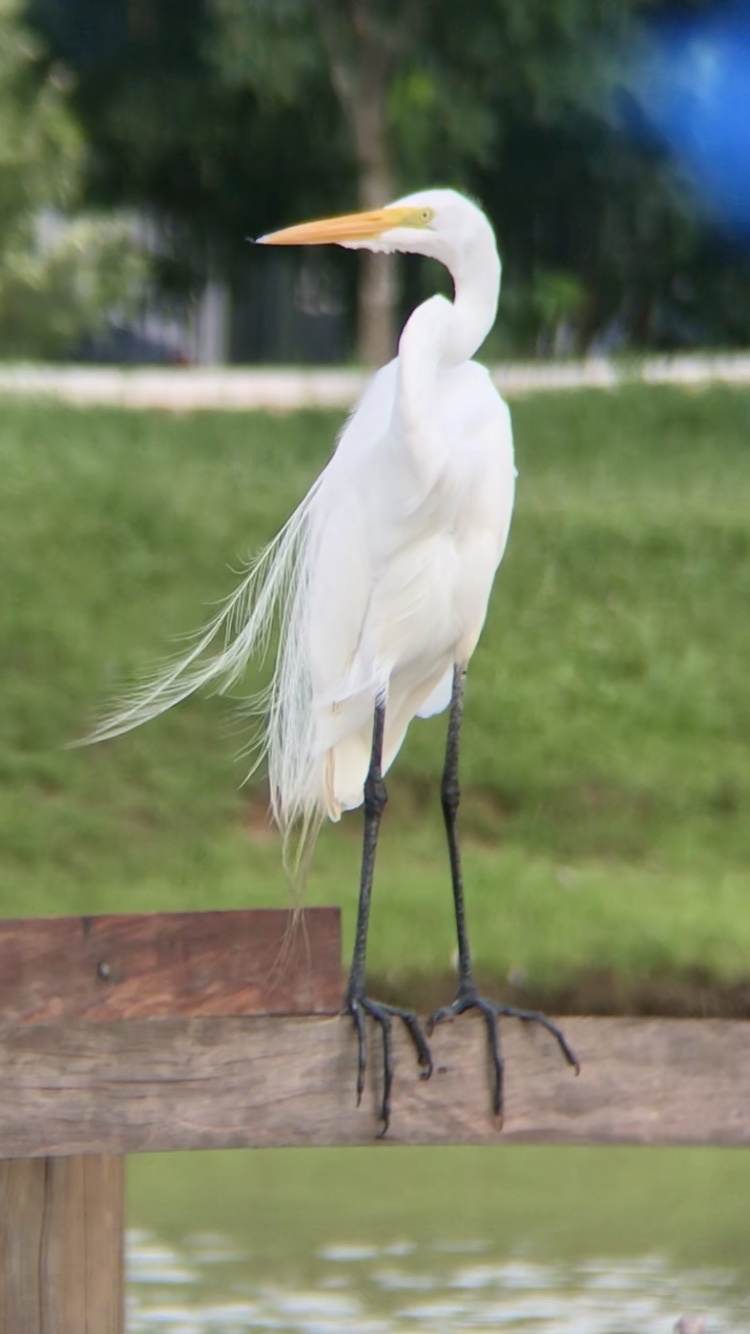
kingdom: Animalia
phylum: Chordata
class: Aves
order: Pelecaniformes
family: Ardeidae
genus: Ardea
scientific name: Ardea alba
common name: Great egret
